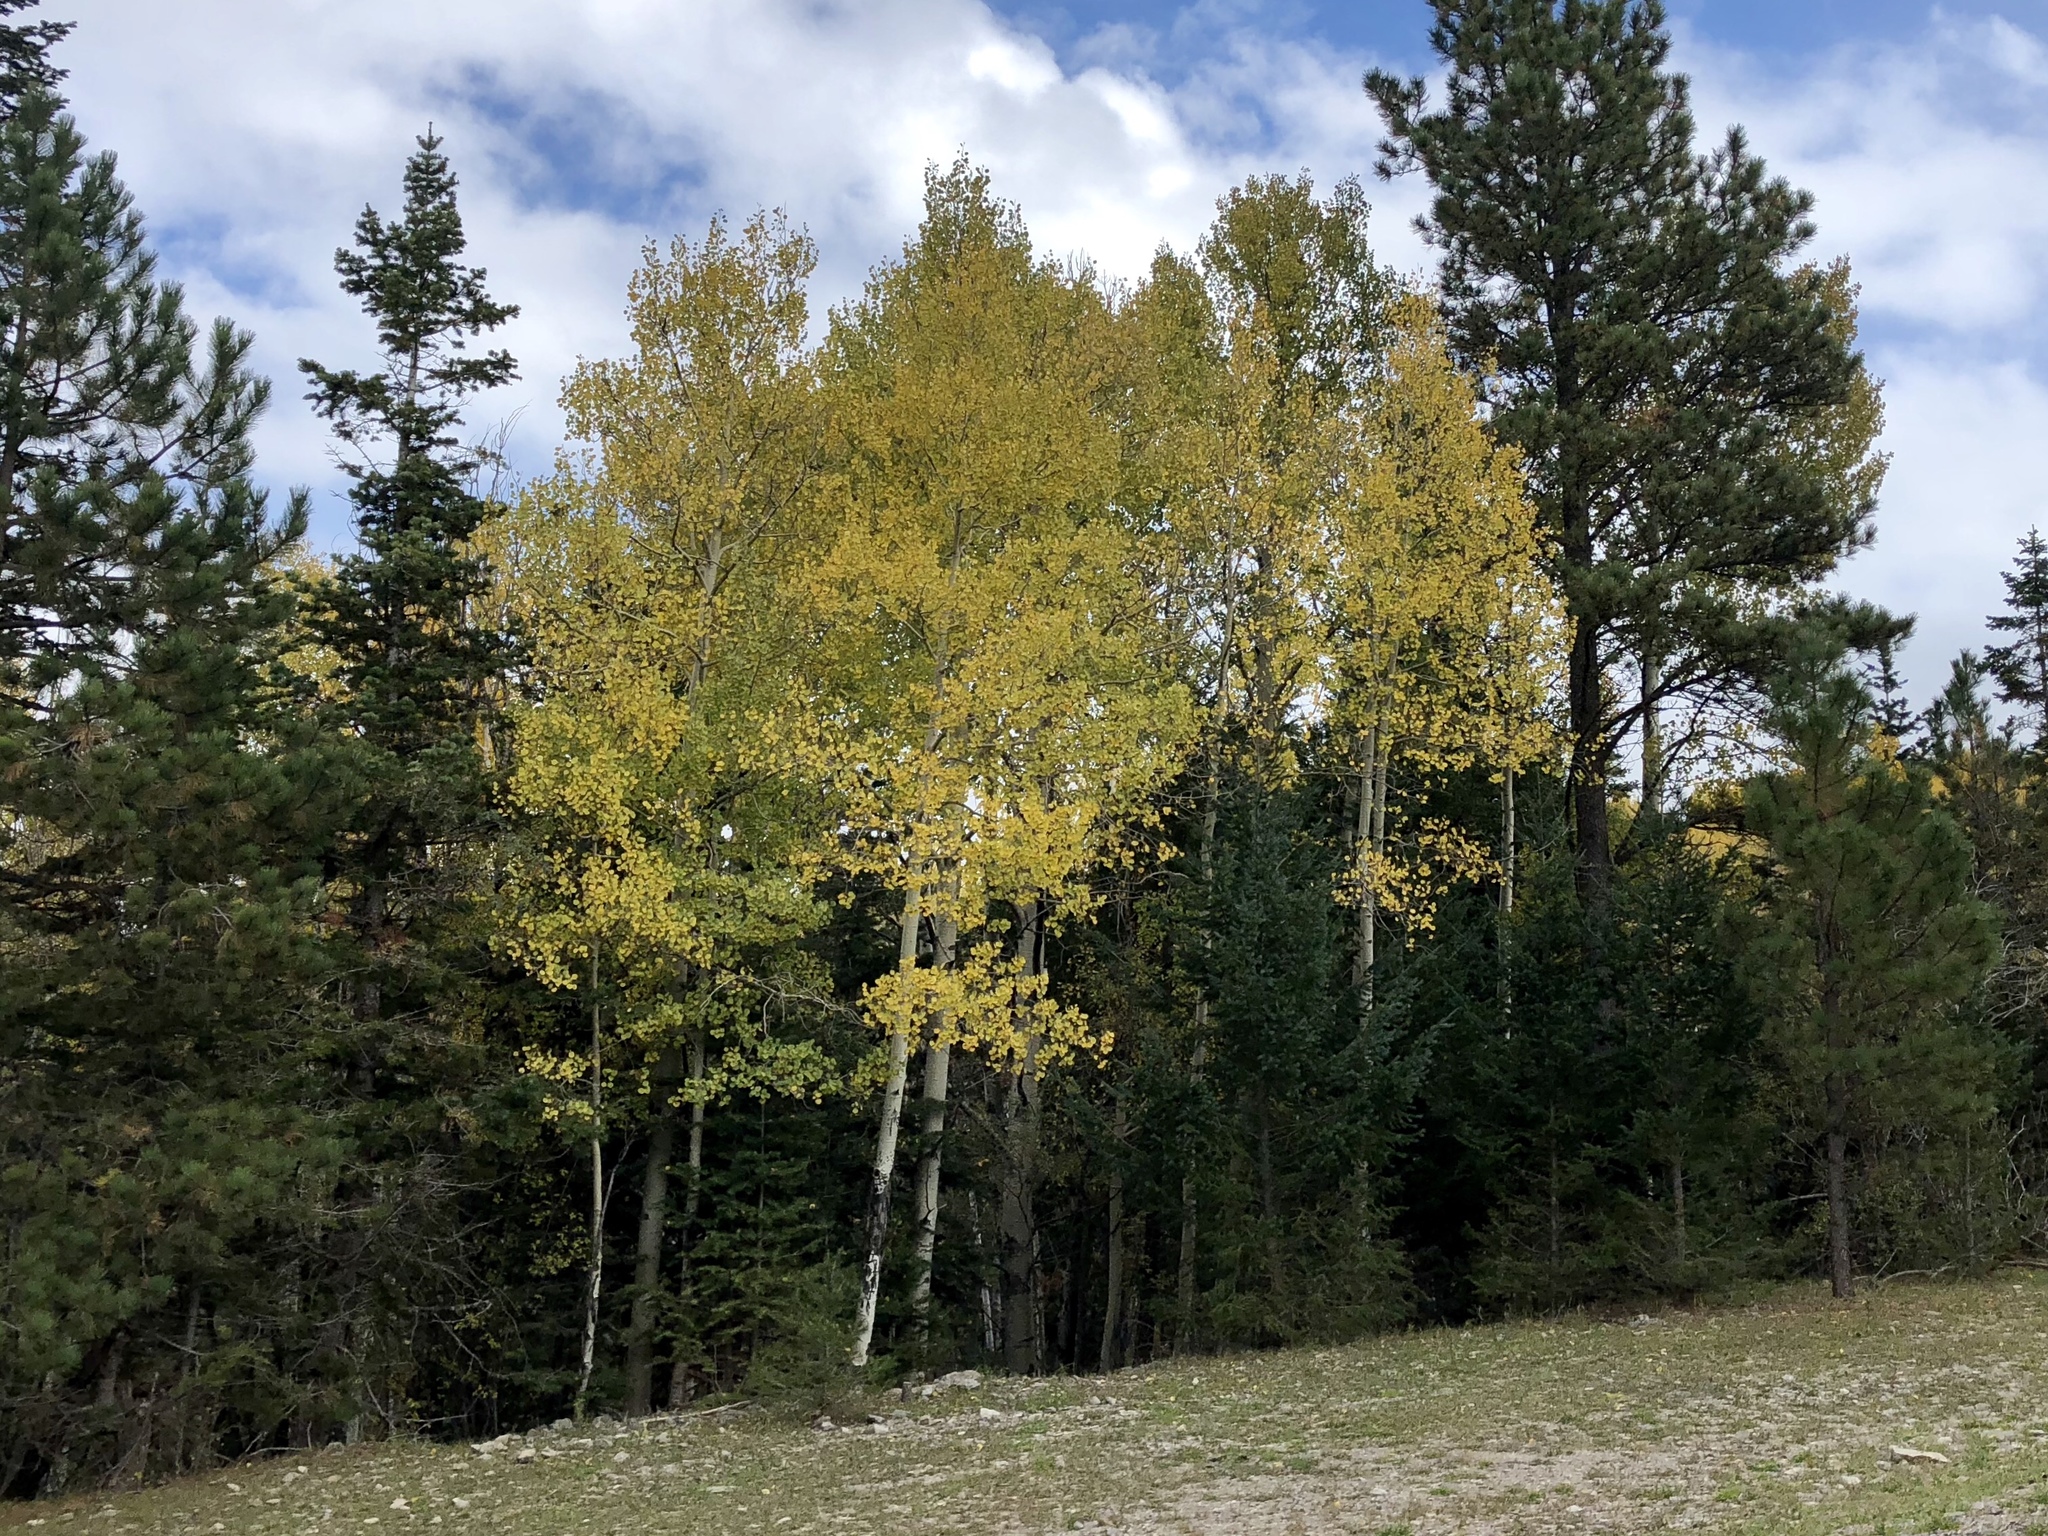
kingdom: Plantae
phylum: Tracheophyta
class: Magnoliopsida
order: Malpighiales
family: Salicaceae
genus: Populus
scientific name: Populus tremuloides
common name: Quaking aspen
